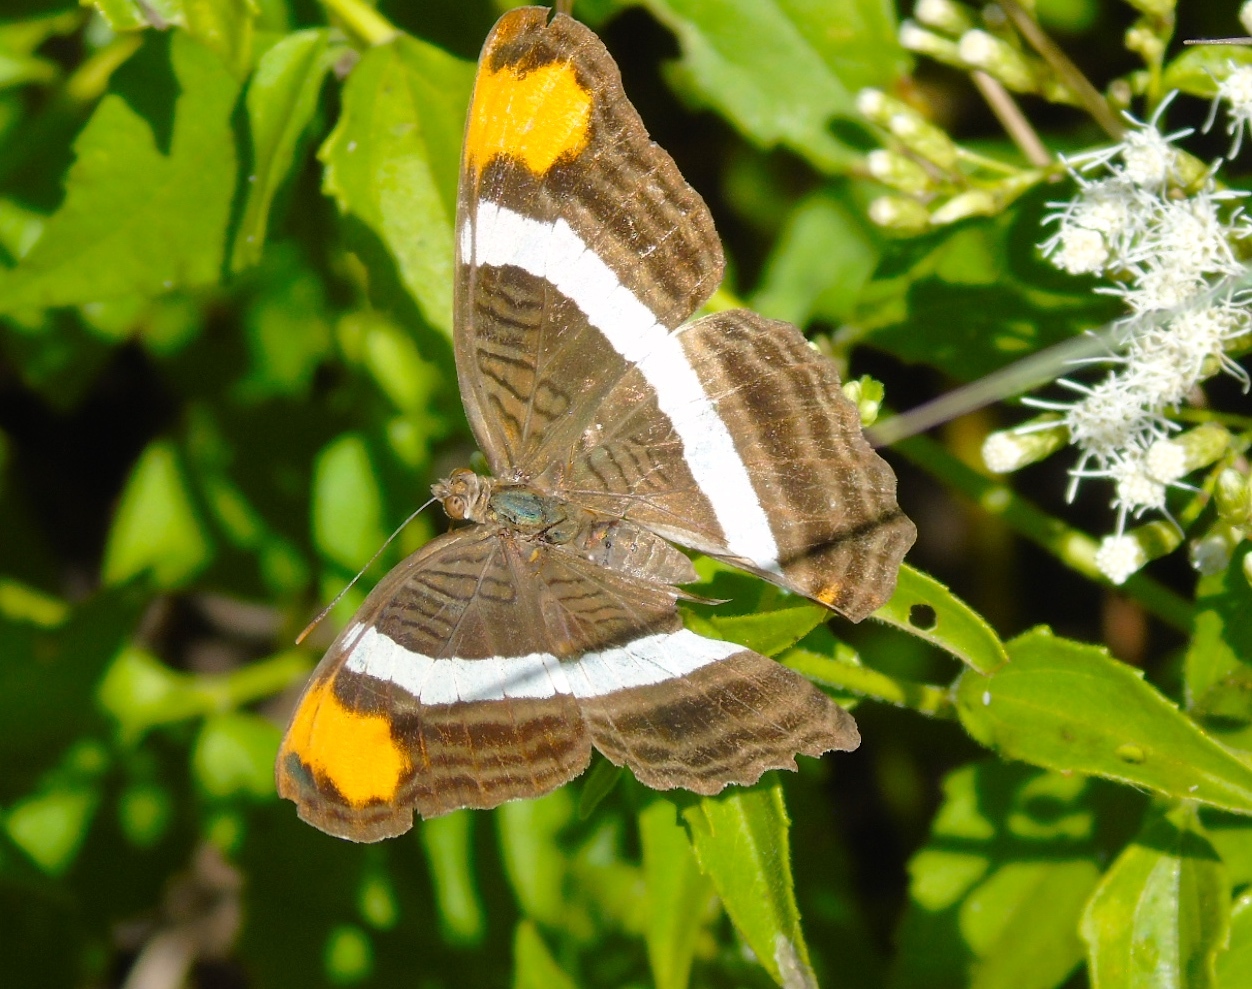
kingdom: Animalia
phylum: Arthropoda
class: Insecta
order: Lepidoptera
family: Nymphalidae
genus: Limenitis
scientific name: Limenitis fessonia
